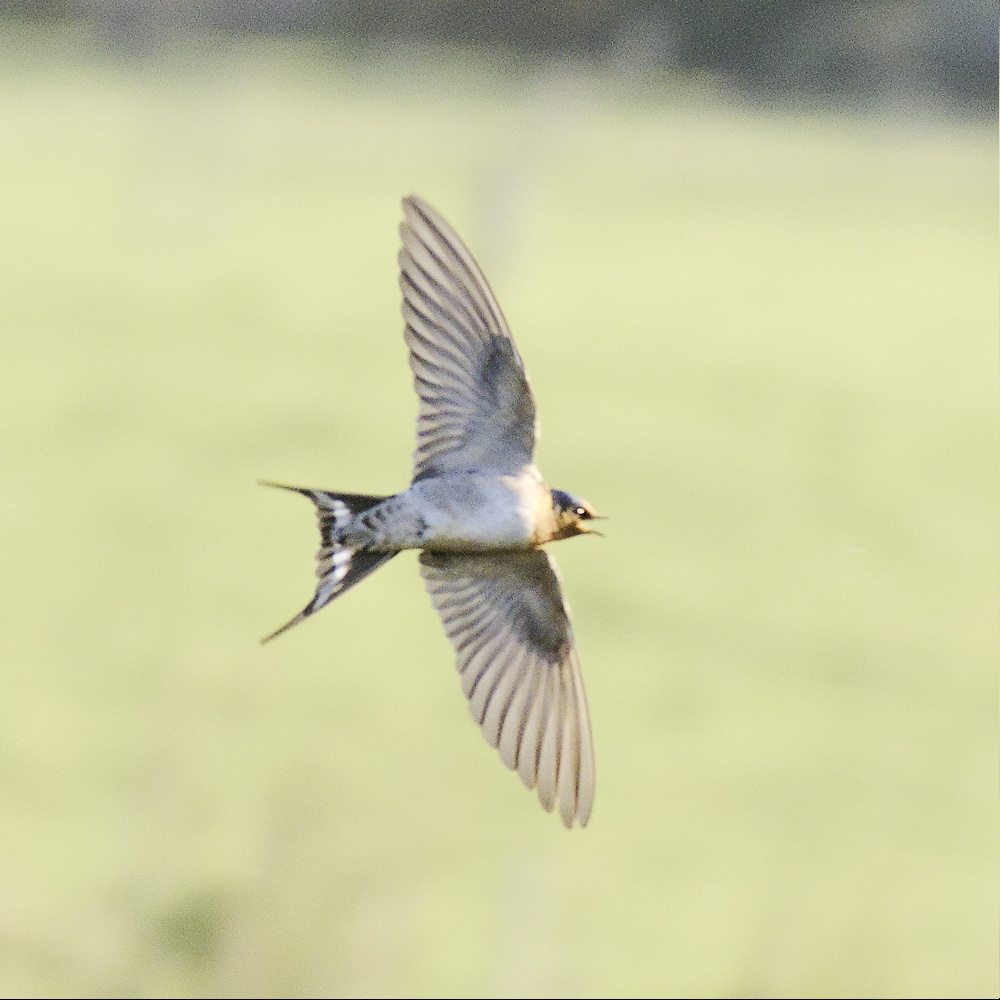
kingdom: Animalia
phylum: Chordata
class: Aves
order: Passeriformes
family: Hirundinidae
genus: Hirundo
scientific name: Hirundo neoxena
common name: Welcome swallow
